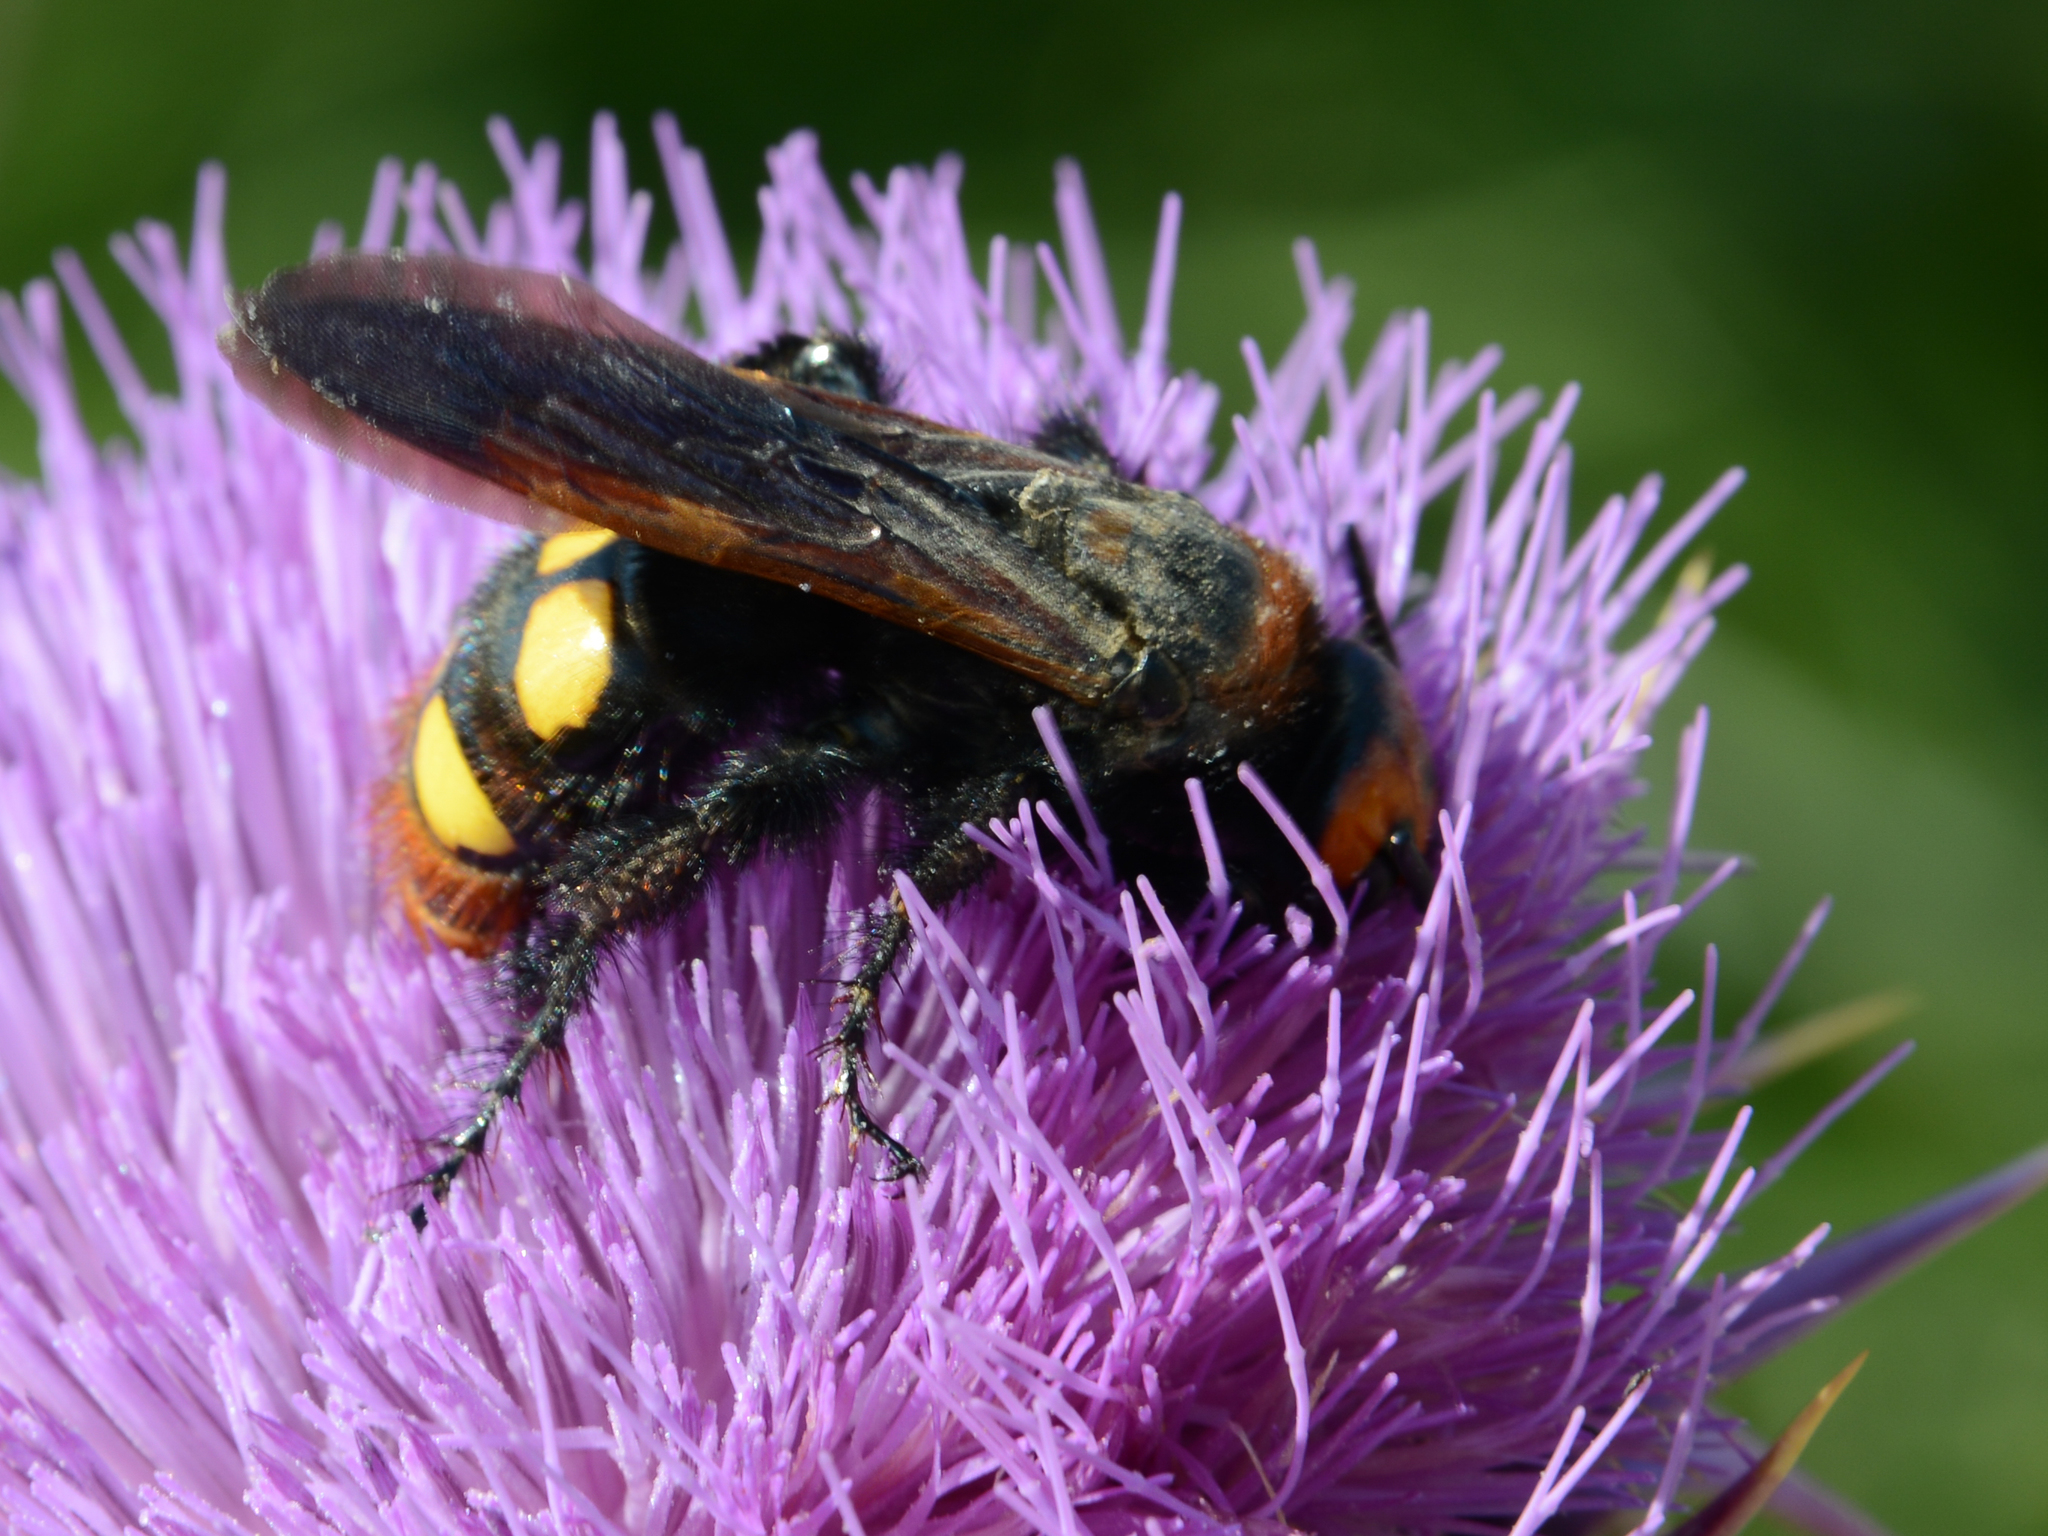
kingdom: Animalia
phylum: Arthropoda
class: Insecta
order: Hymenoptera
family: Scoliidae
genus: Megascolia
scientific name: Megascolia maculata
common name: Mammoth wasp
